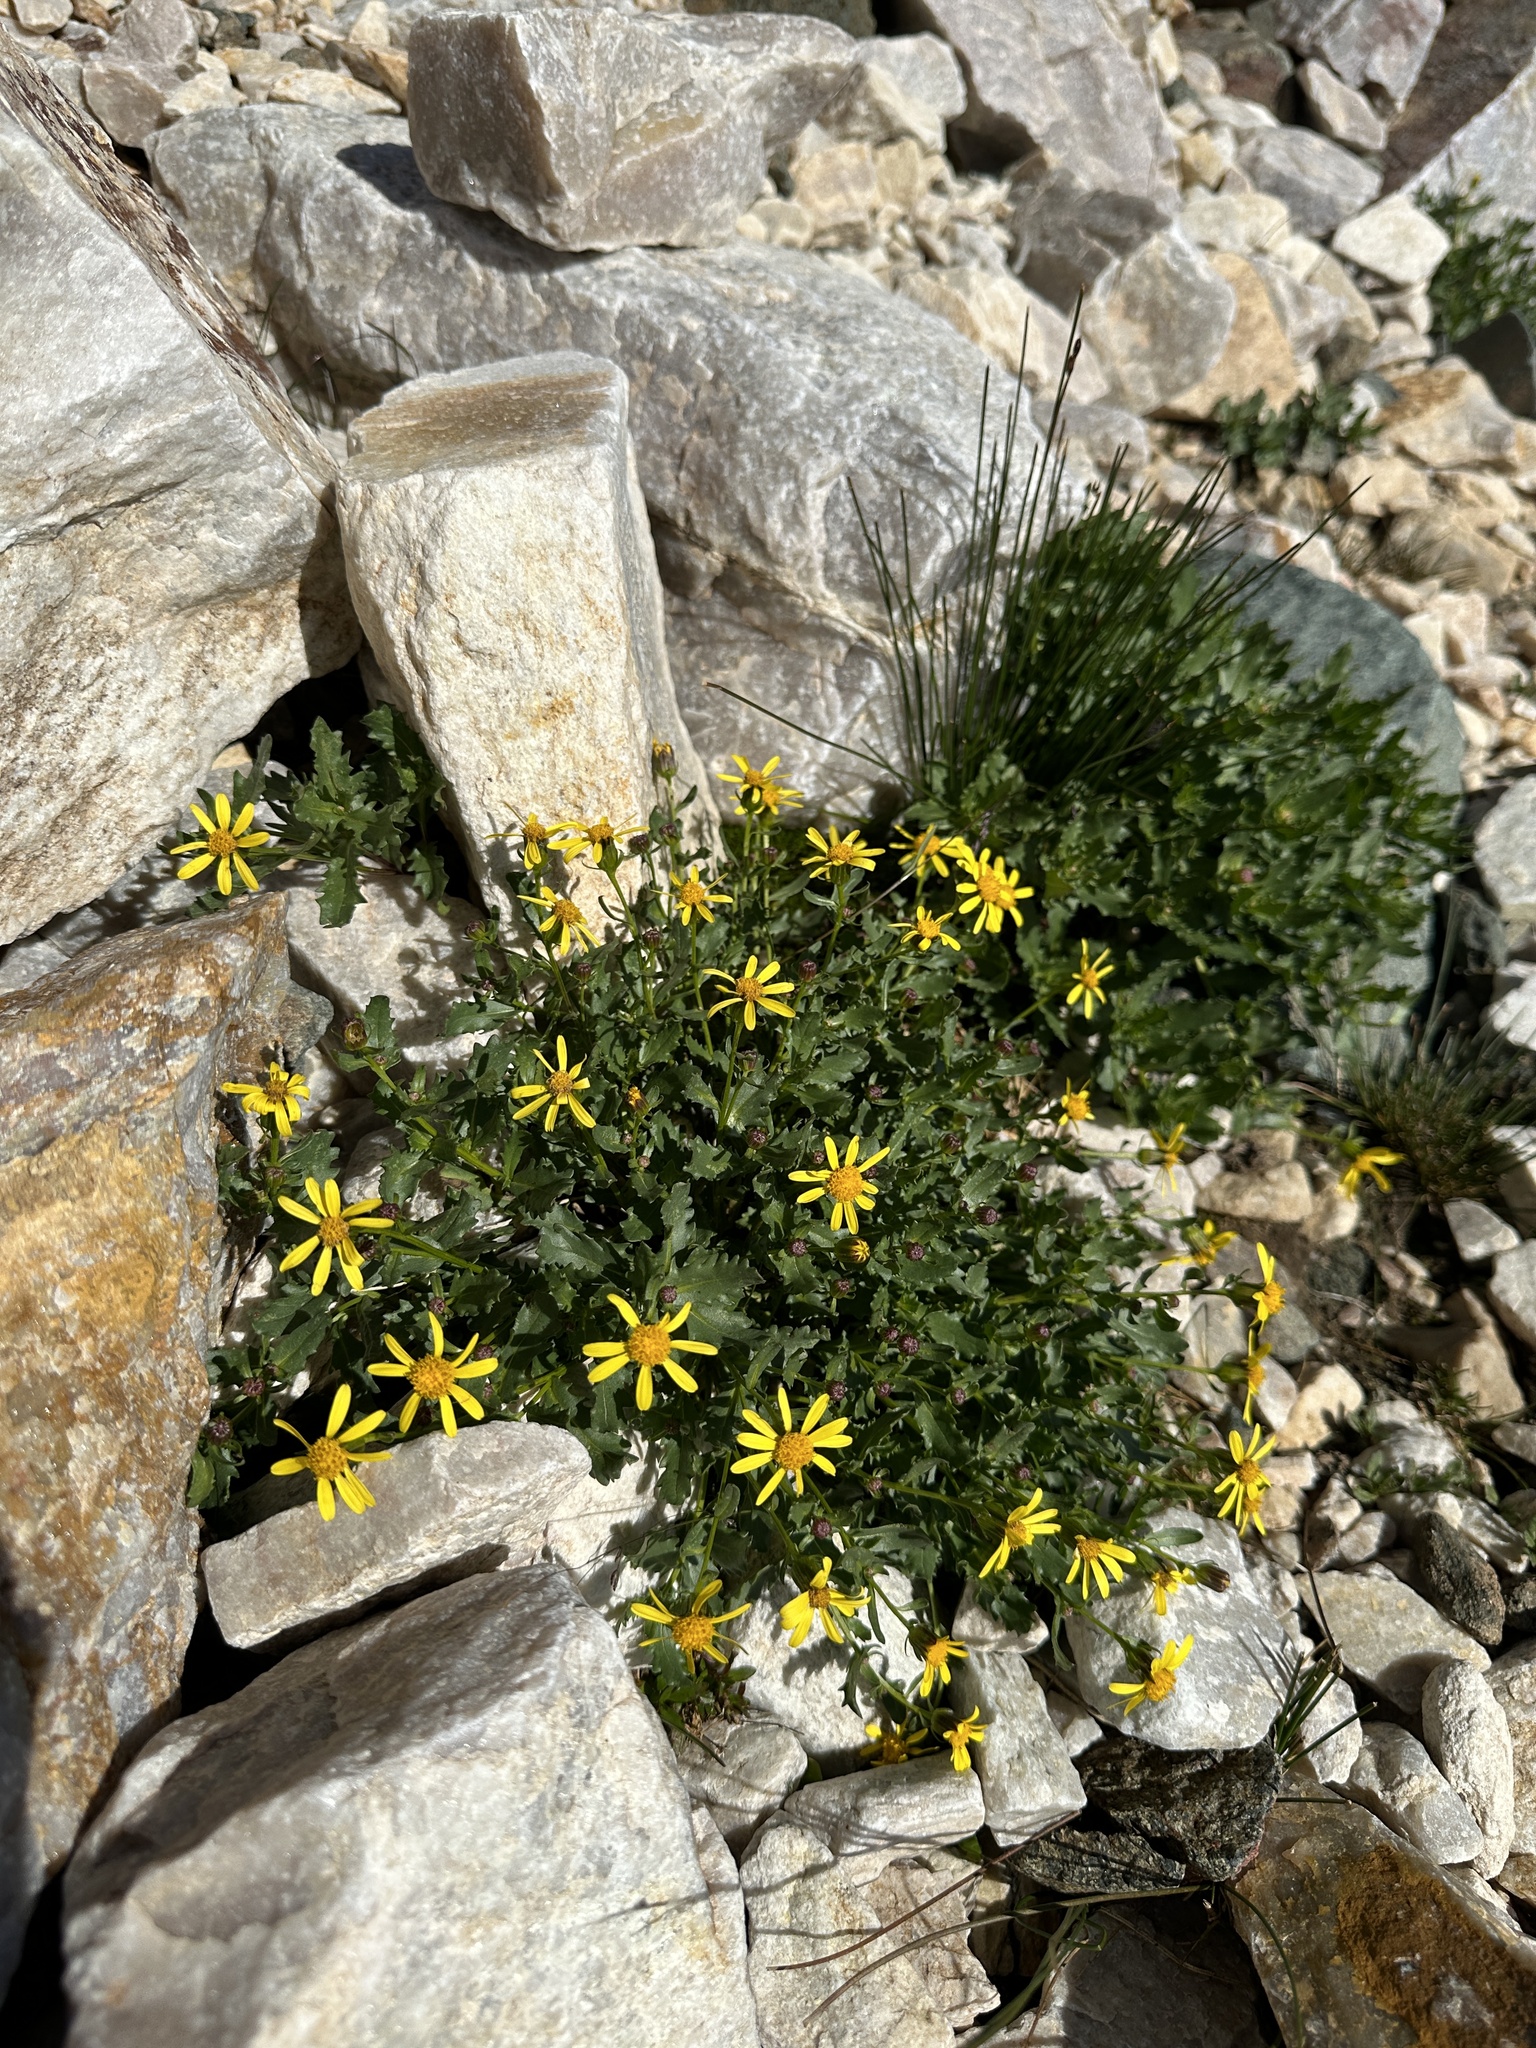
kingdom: Plantae
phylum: Tracheophyta
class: Magnoliopsida
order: Asterales
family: Asteraceae
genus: Senecio
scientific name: Senecio blitoides
